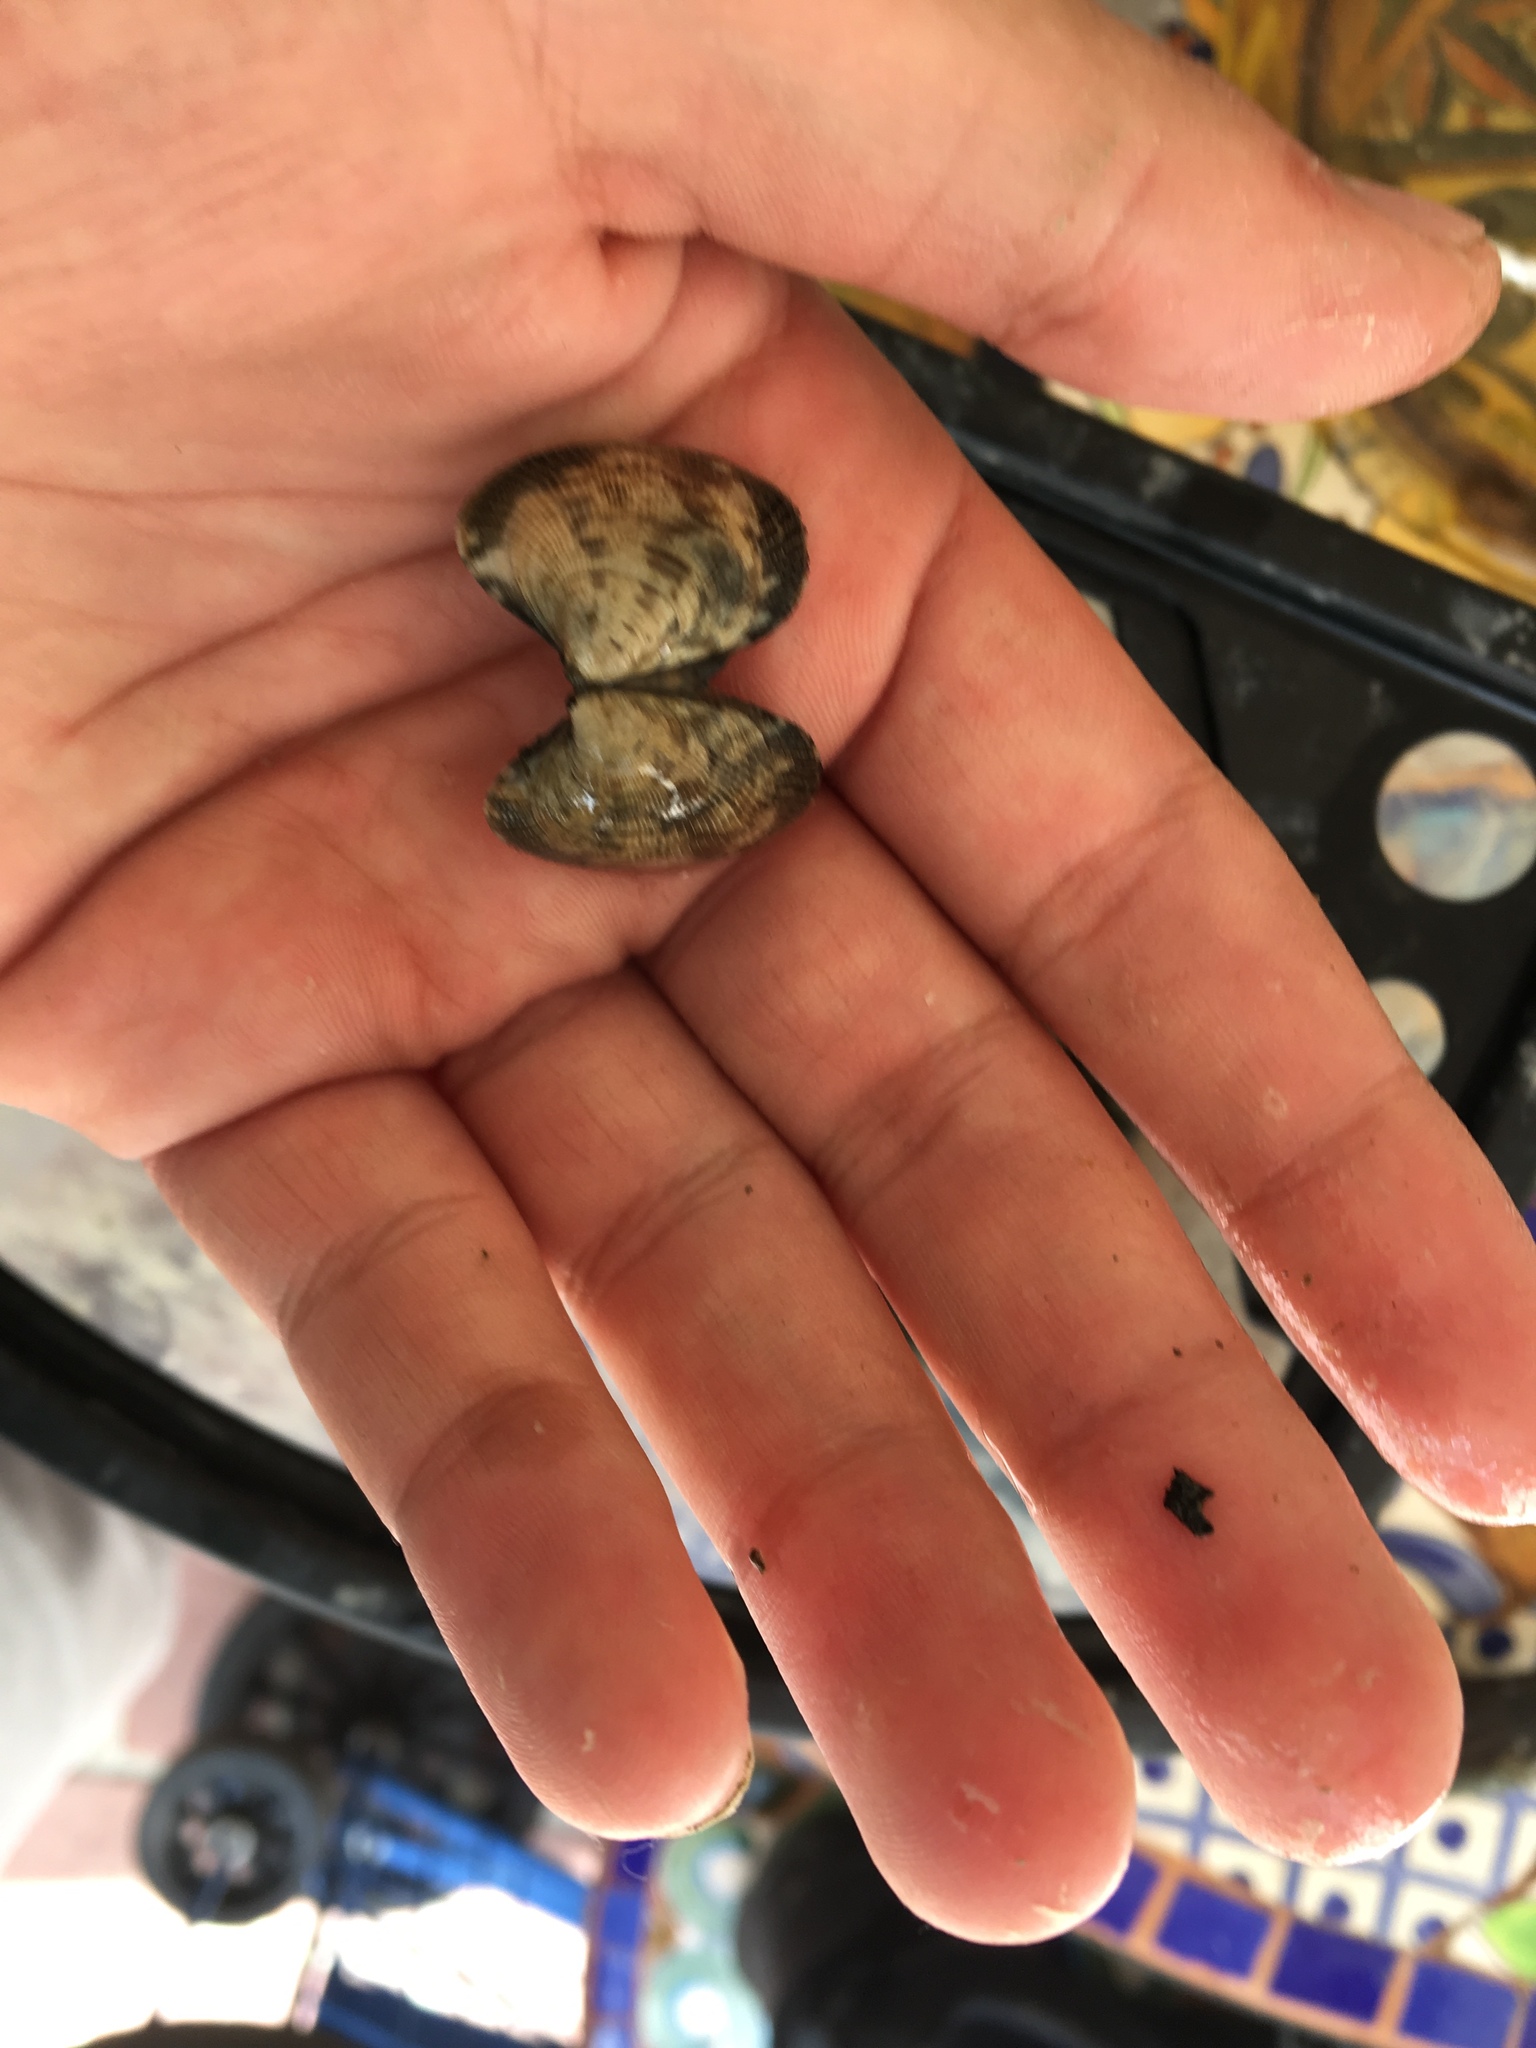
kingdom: Animalia
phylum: Mollusca
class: Bivalvia
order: Venerida
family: Veneridae
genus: Ruditapes
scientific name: Ruditapes philippinarum
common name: Manila clam
